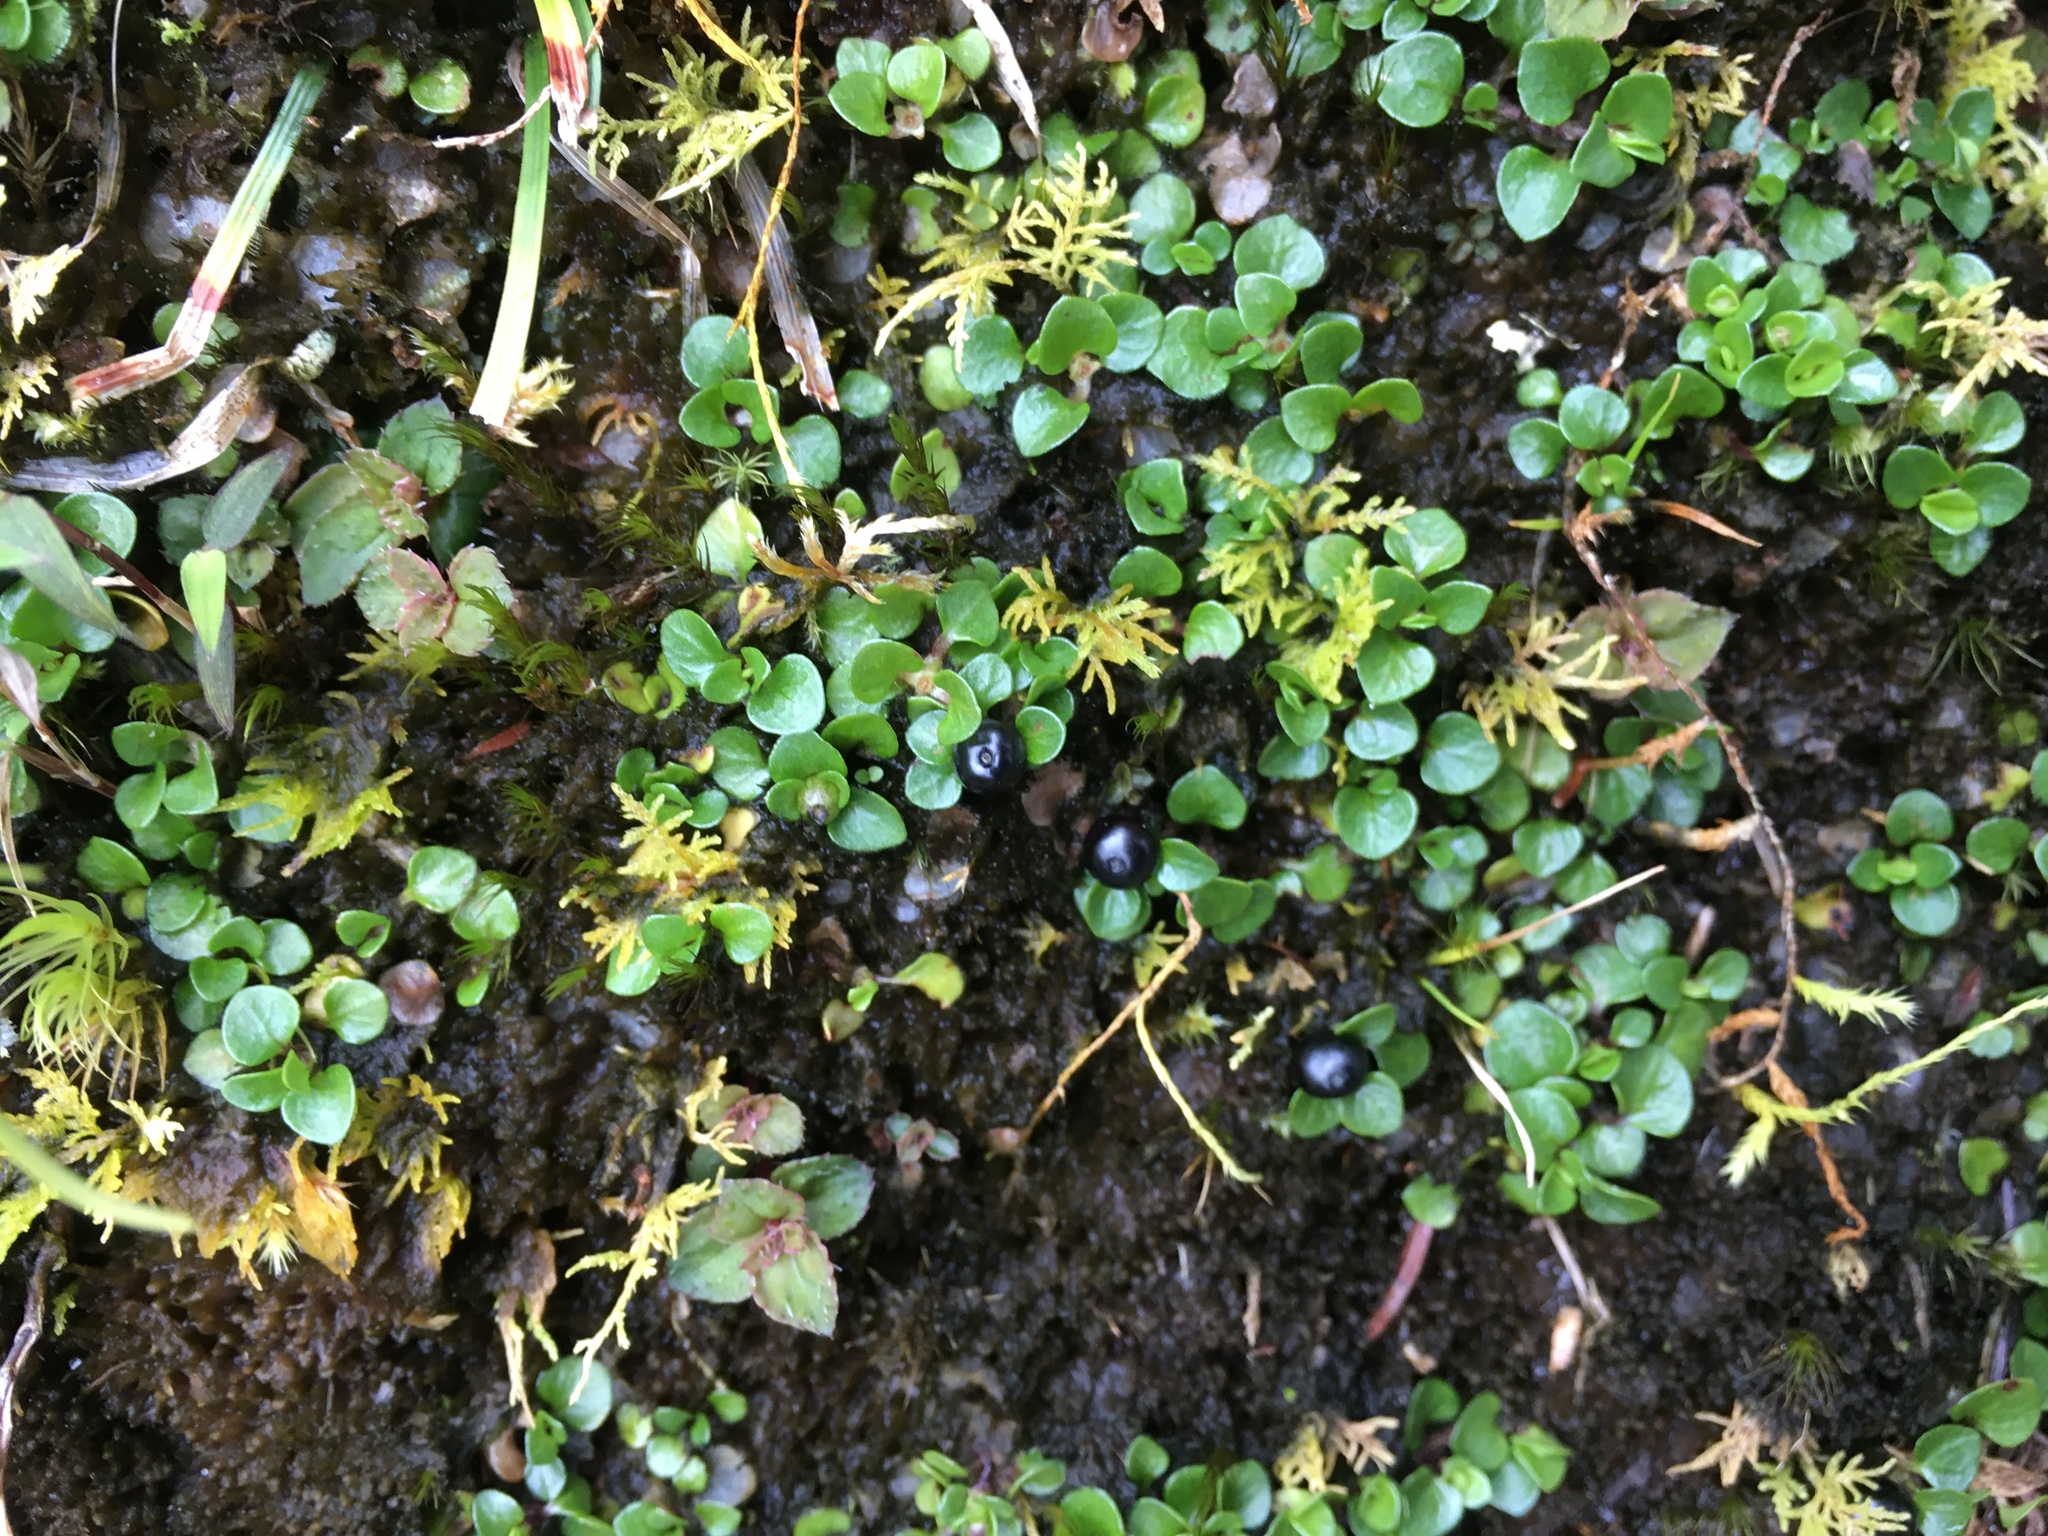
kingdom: Plantae
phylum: Tracheophyta
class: Magnoliopsida
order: Gentianales
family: Rubiaceae
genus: Nertera
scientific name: Nertera nigricarpa
